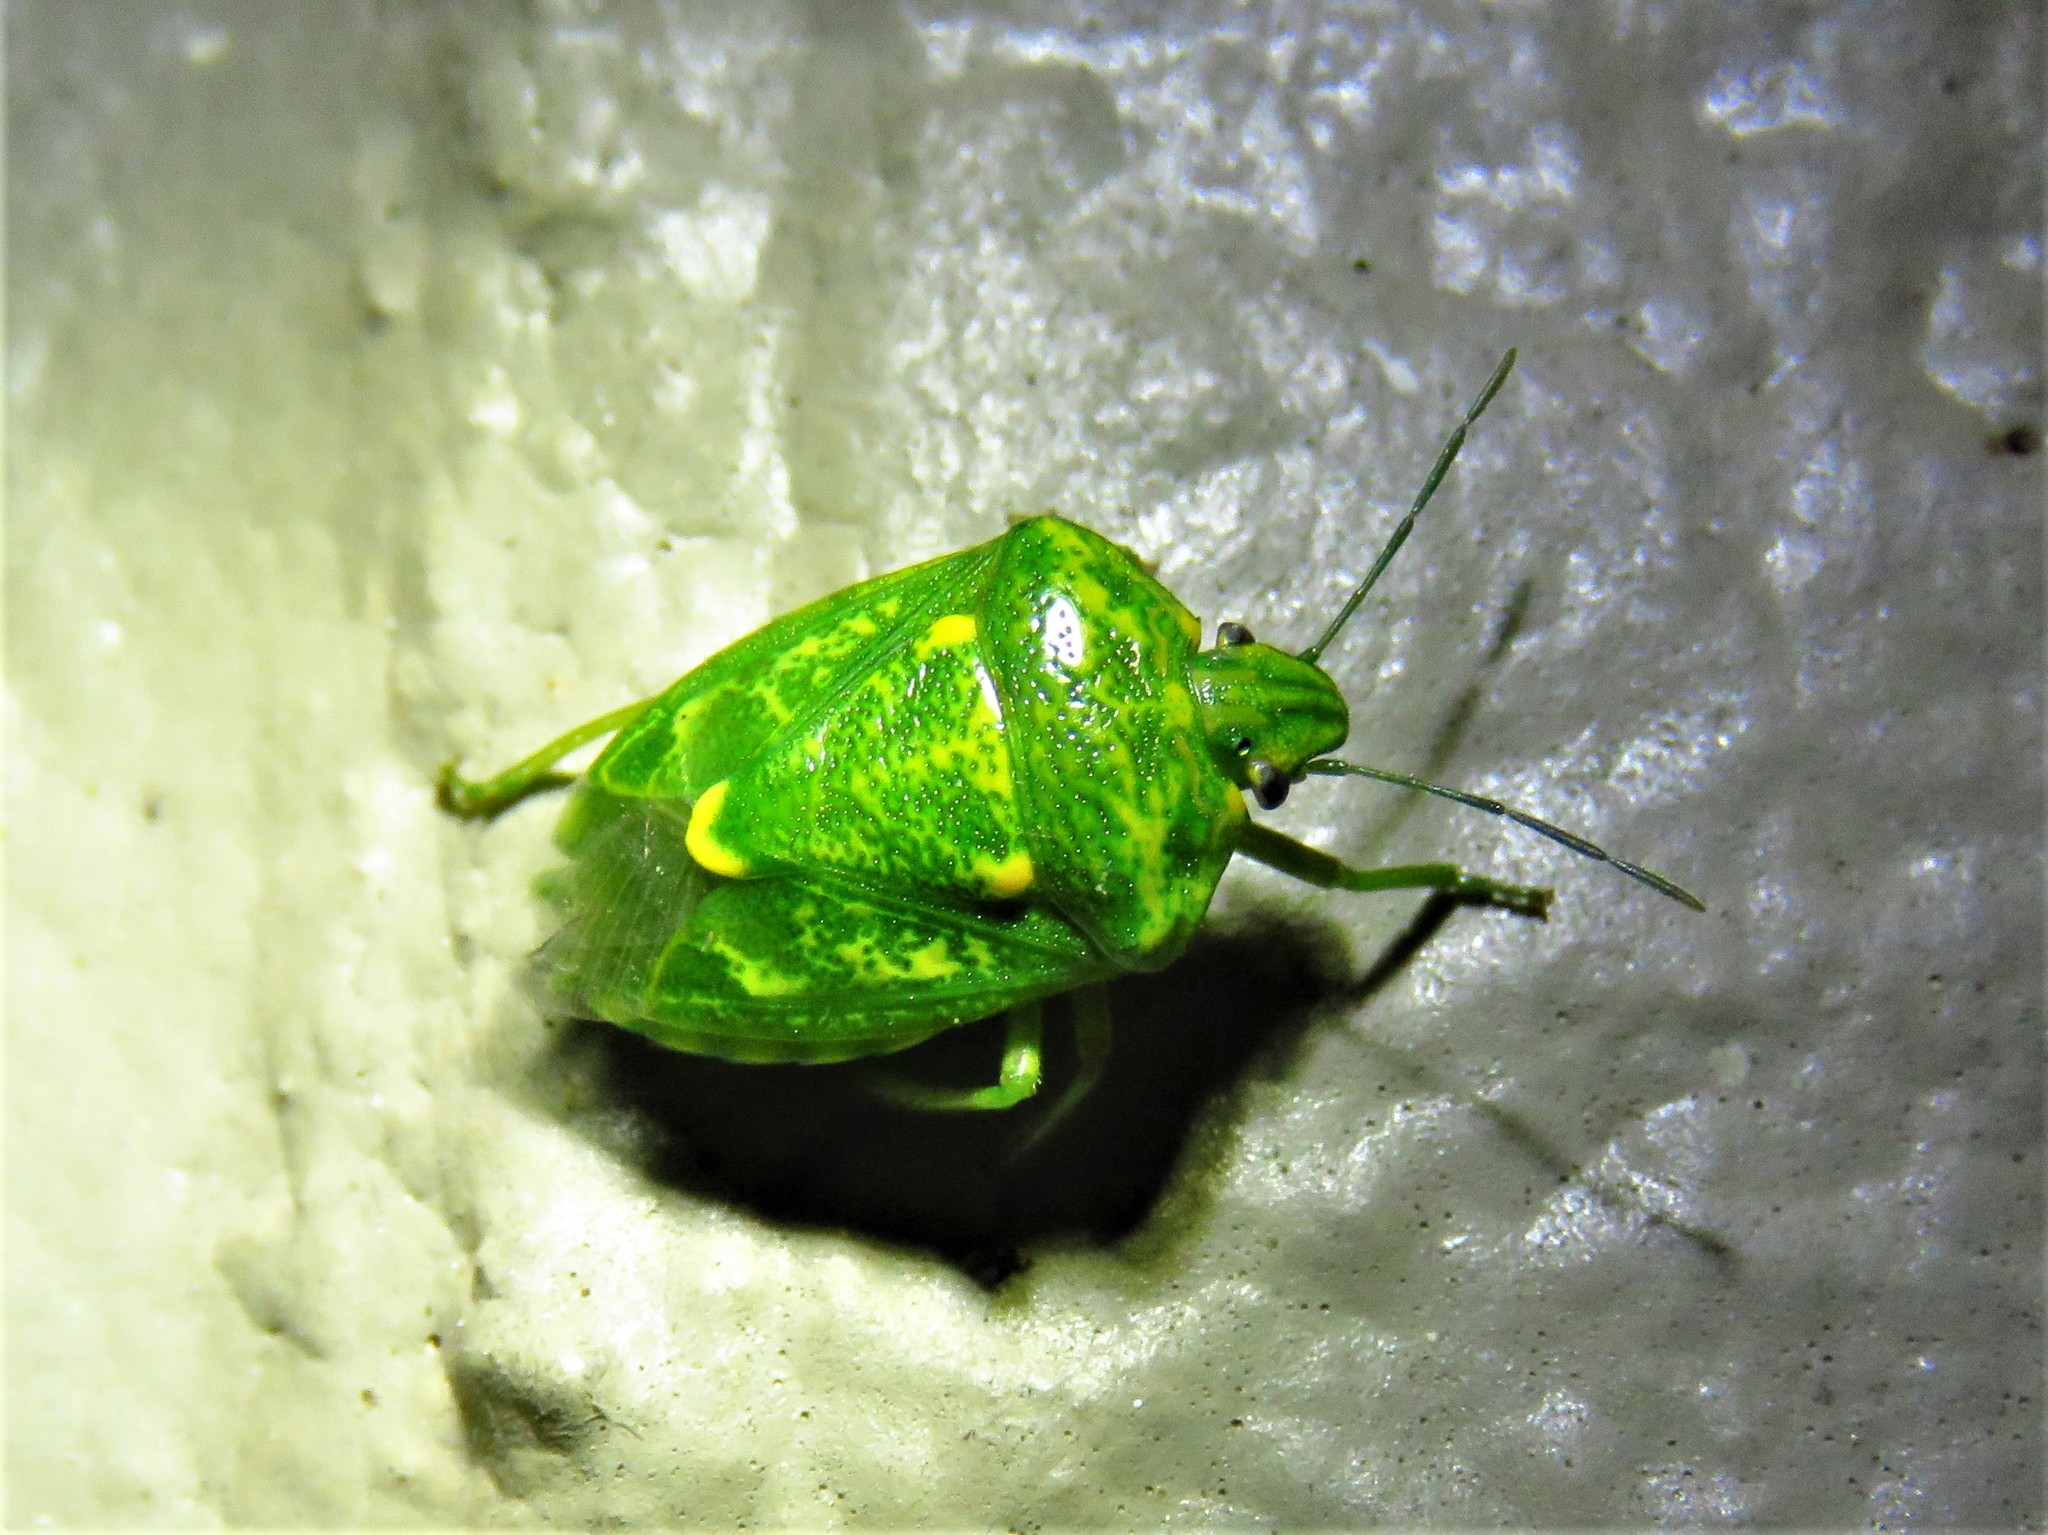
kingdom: Animalia
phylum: Arthropoda
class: Insecta
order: Hemiptera
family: Pentatomidae
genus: Banasa
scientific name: Banasa euchlora
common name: Cedar berry bug
